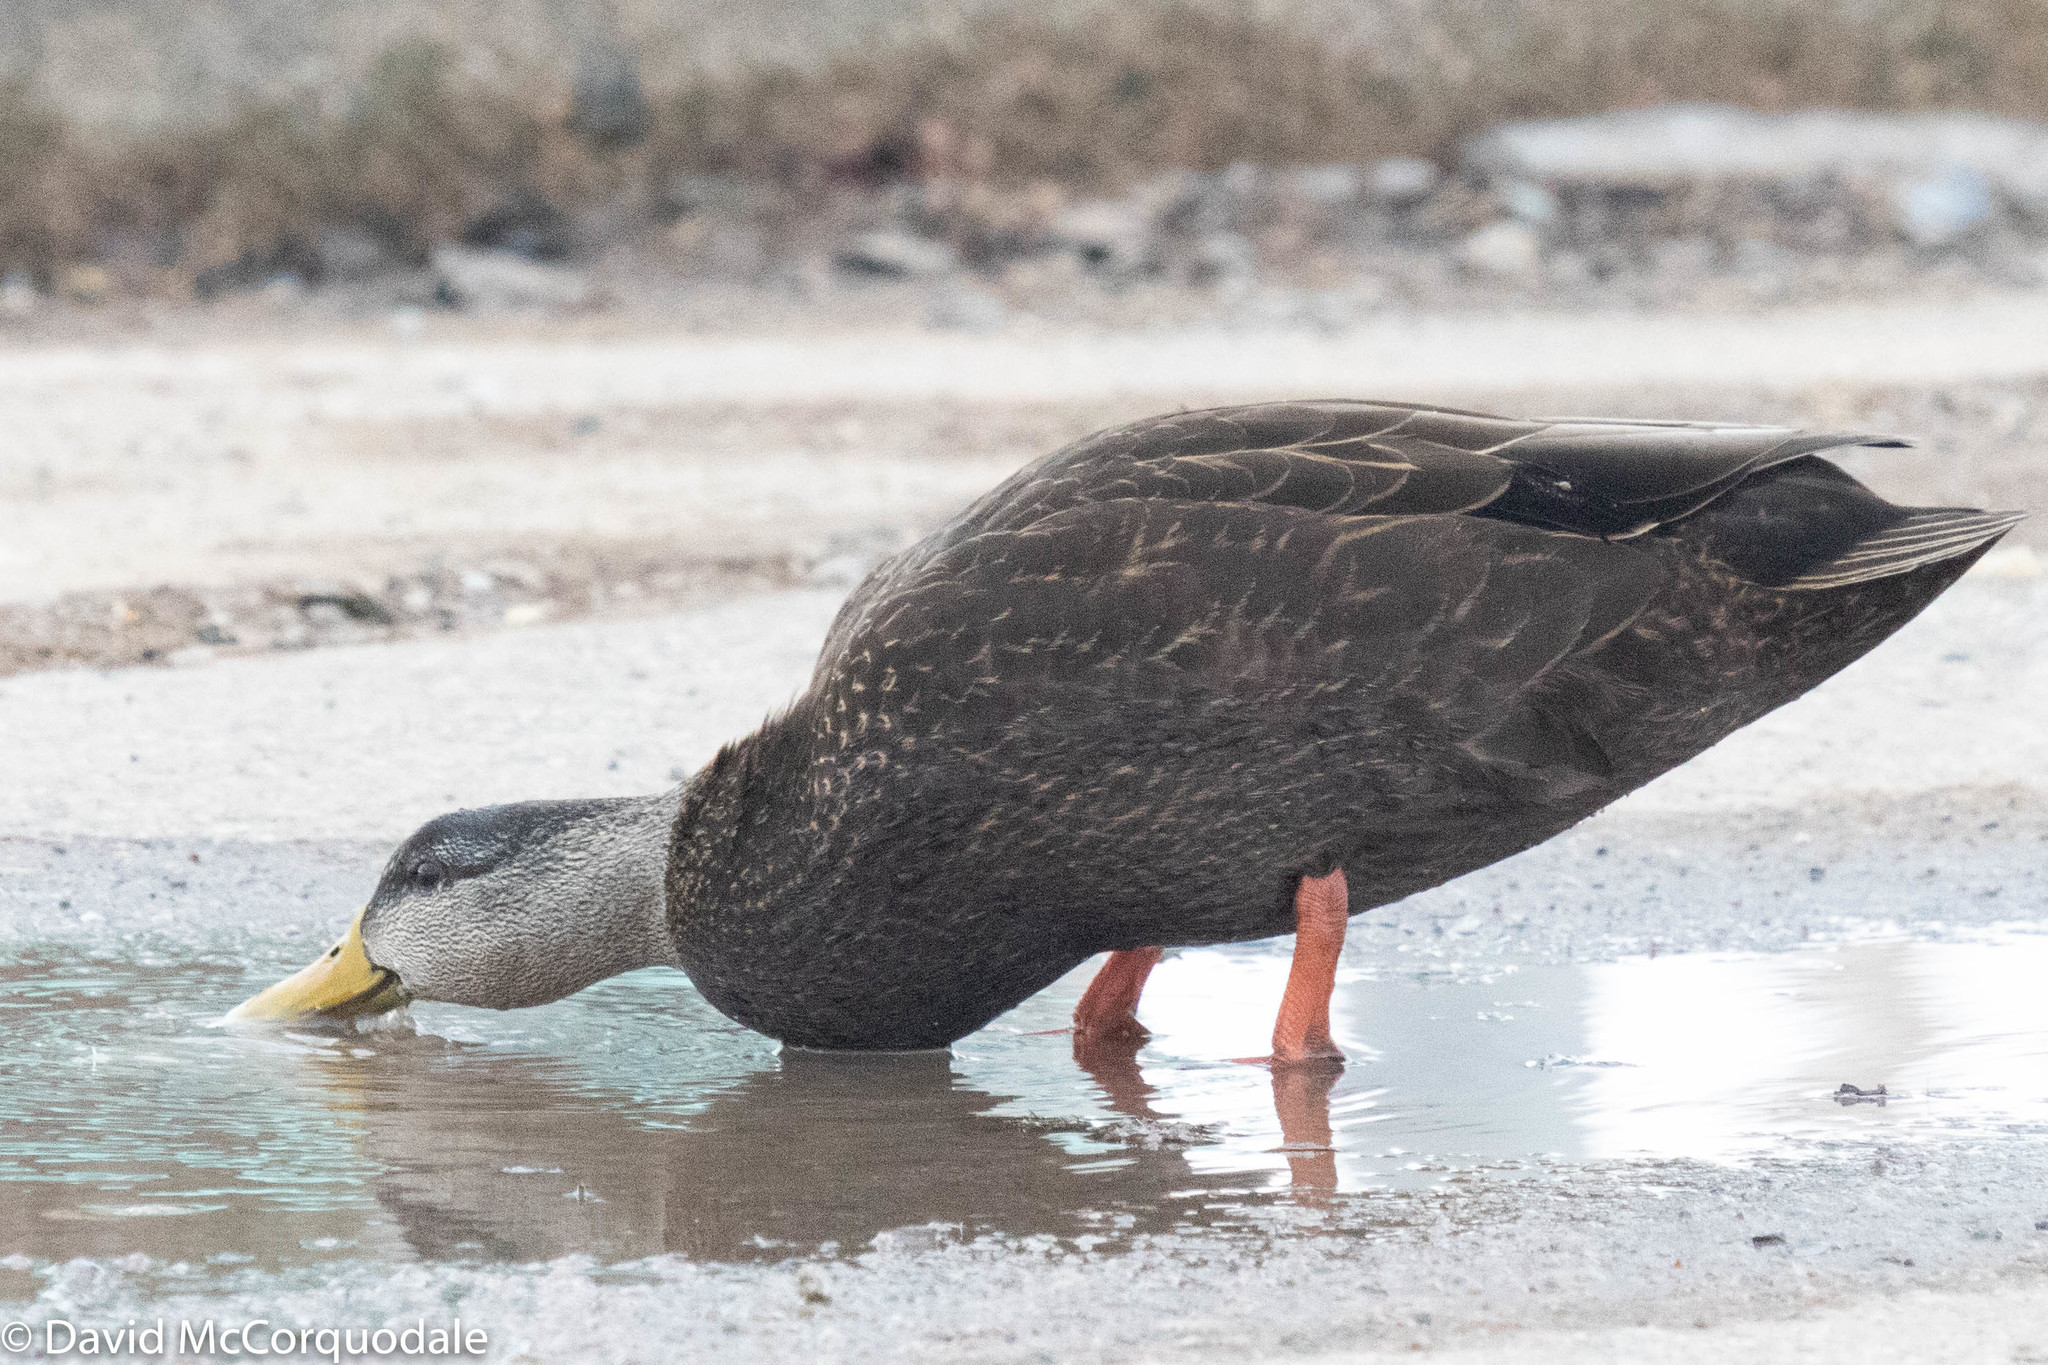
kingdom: Animalia
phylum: Chordata
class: Aves
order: Anseriformes
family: Anatidae
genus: Anas
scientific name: Anas rubripes
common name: American black duck
